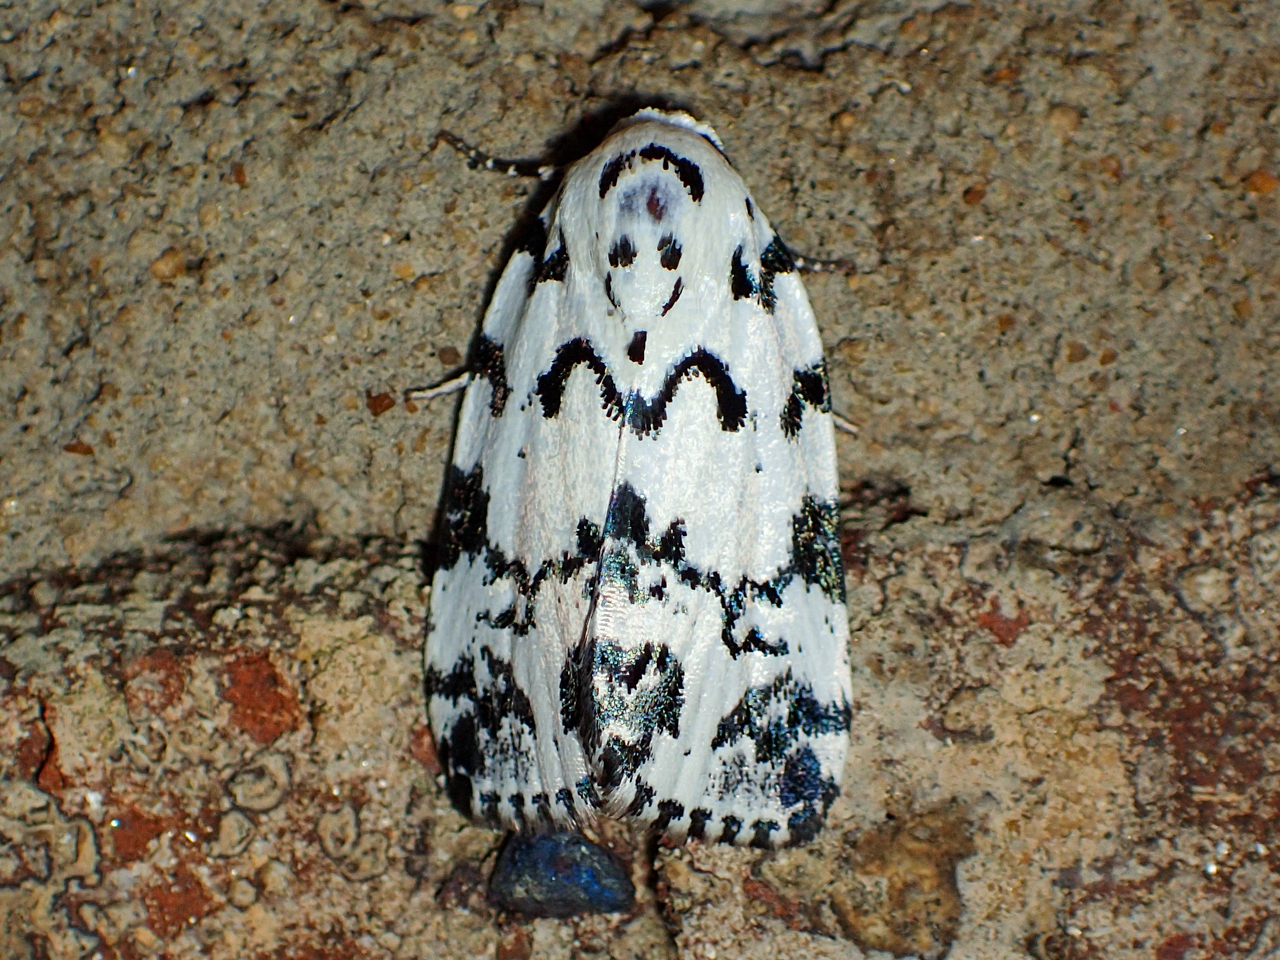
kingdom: Animalia
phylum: Arthropoda
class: Insecta
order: Lepidoptera
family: Noctuidae
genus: Polygrammate
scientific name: Polygrammate hebraeicum
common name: Hebrew moth
